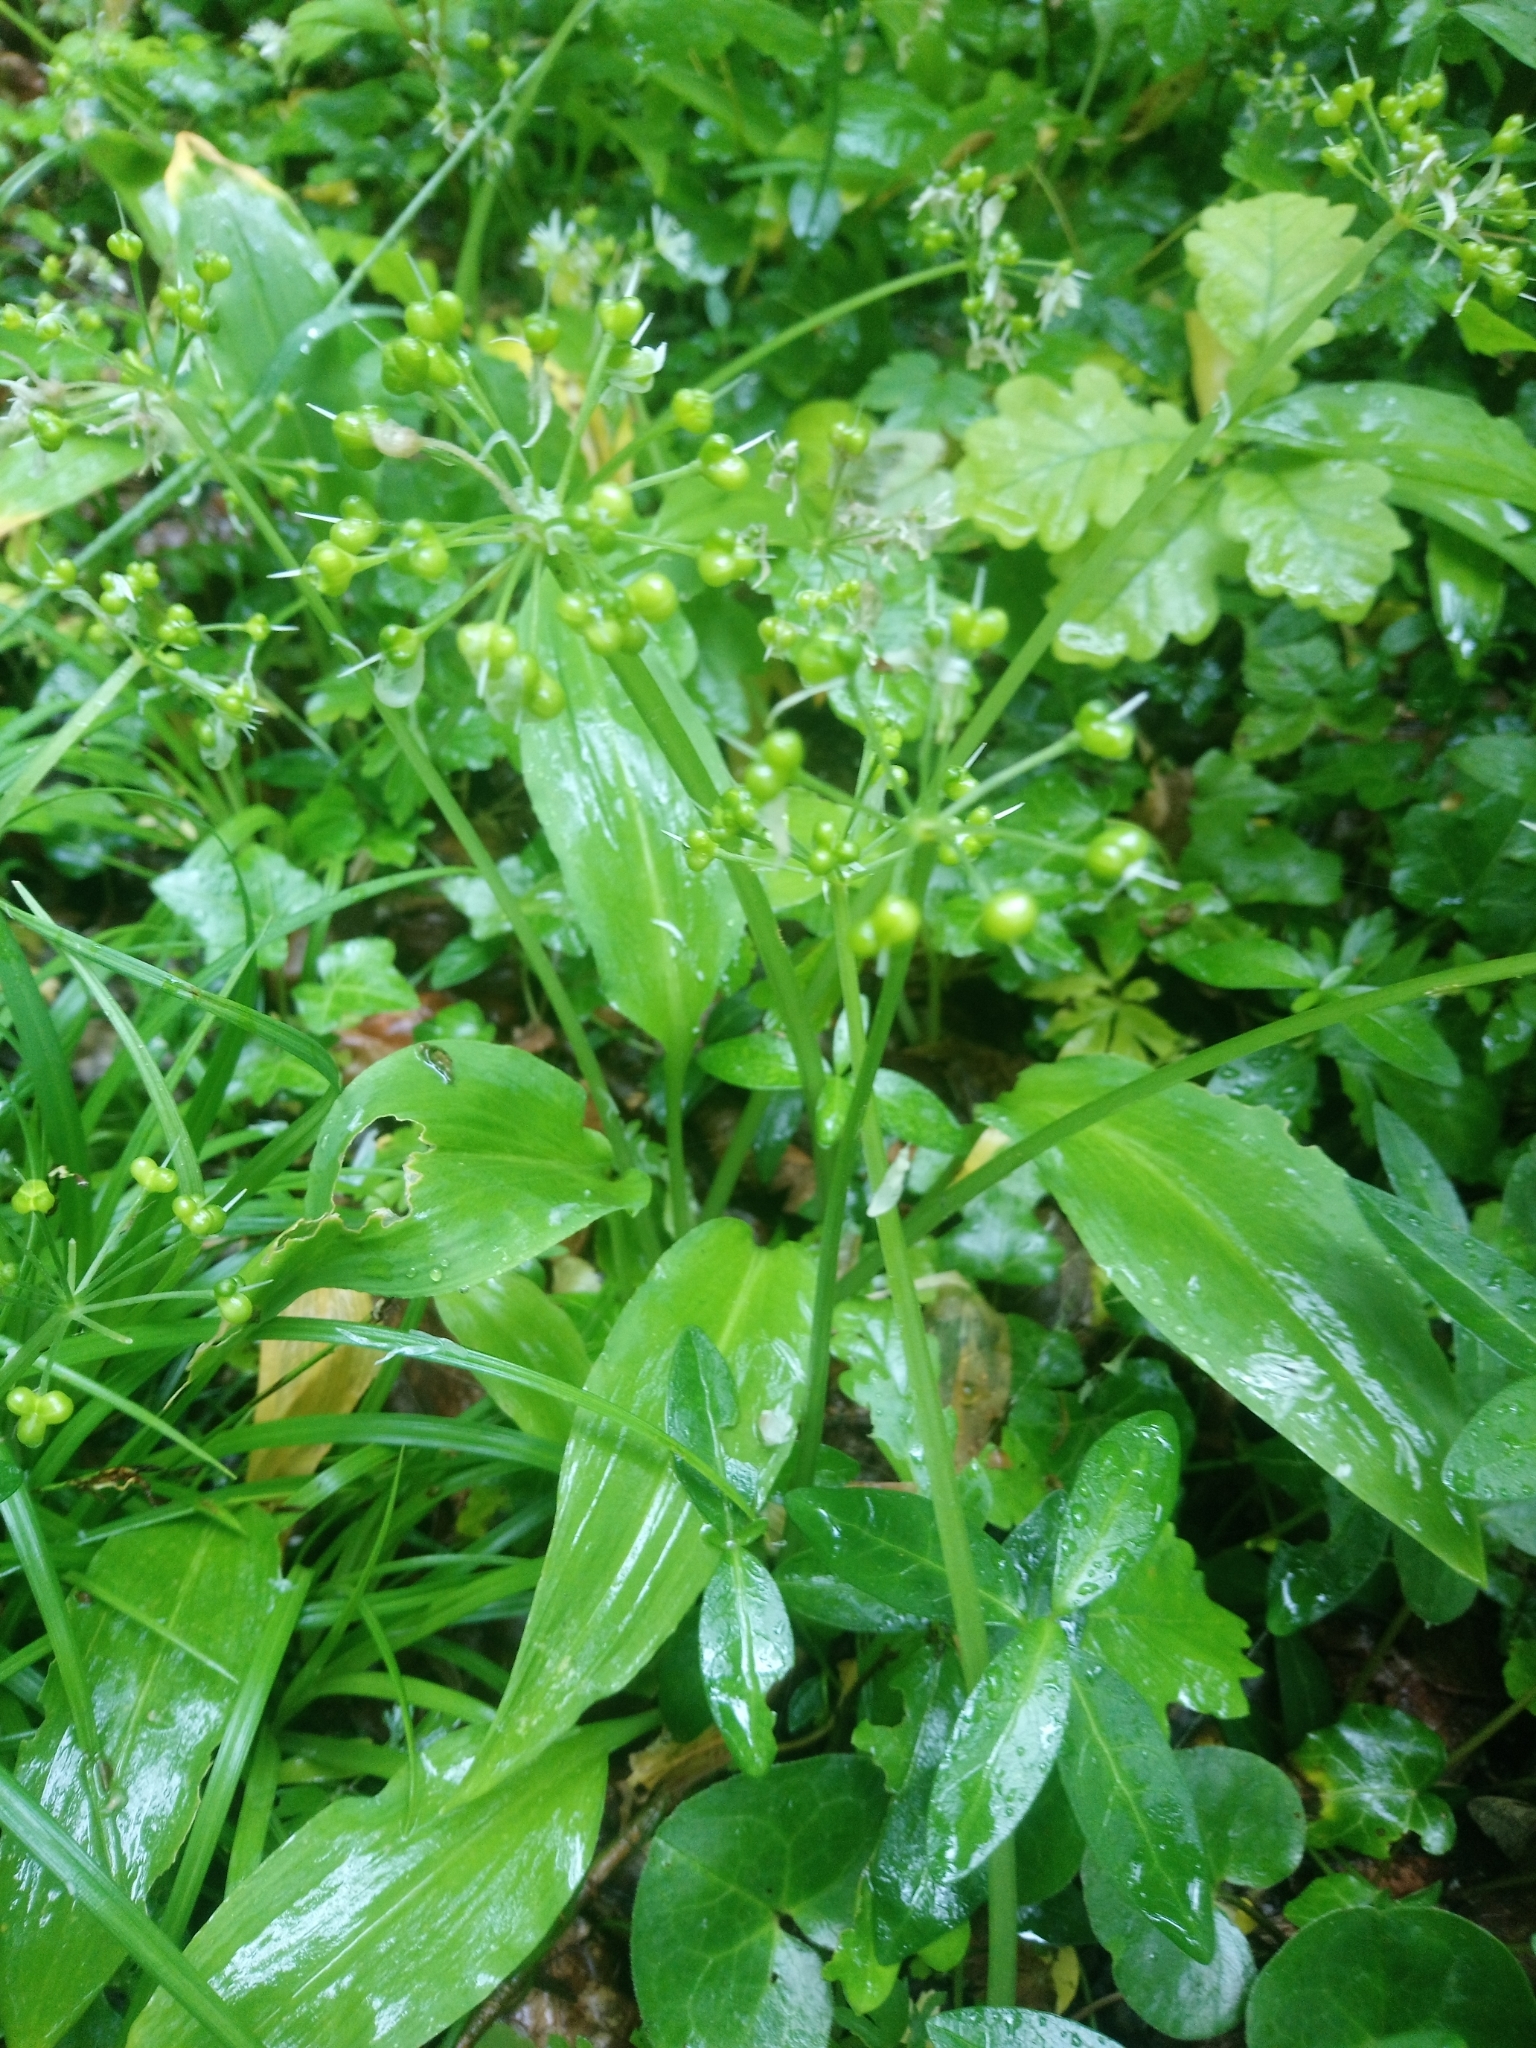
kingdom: Plantae
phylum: Tracheophyta
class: Liliopsida
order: Asparagales
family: Amaryllidaceae
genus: Allium
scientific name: Allium ursinum
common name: Ramsons
